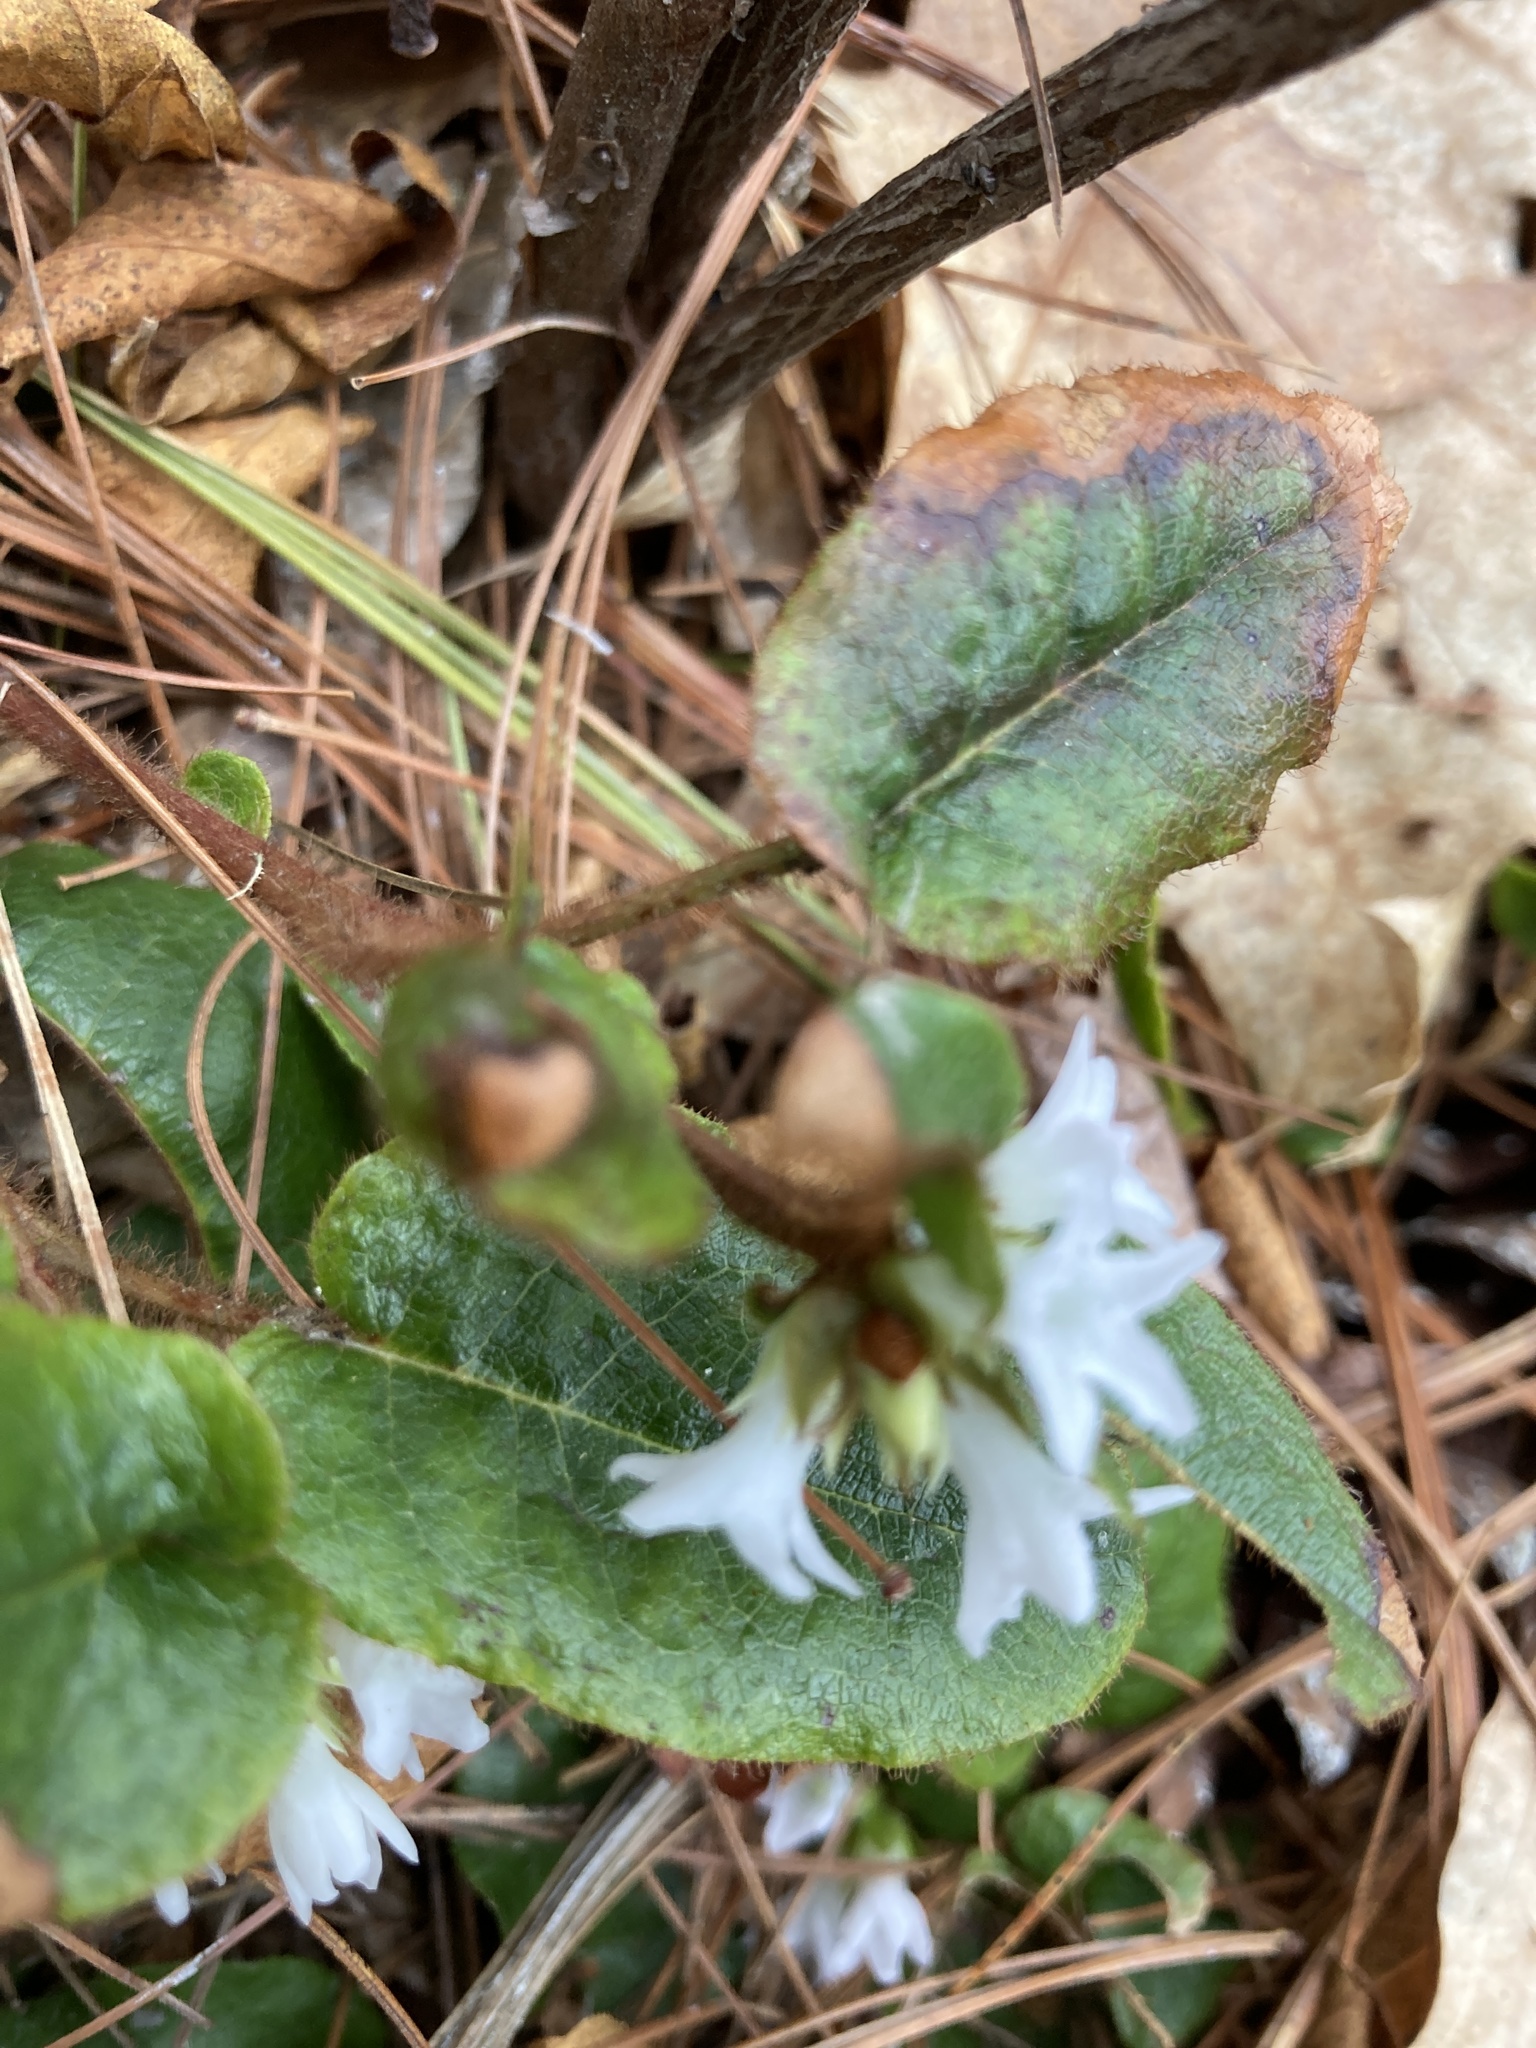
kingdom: Plantae
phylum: Tracheophyta
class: Magnoliopsida
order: Ericales
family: Ericaceae
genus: Epigaea
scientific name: Epigaea repens
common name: Gravelroot
